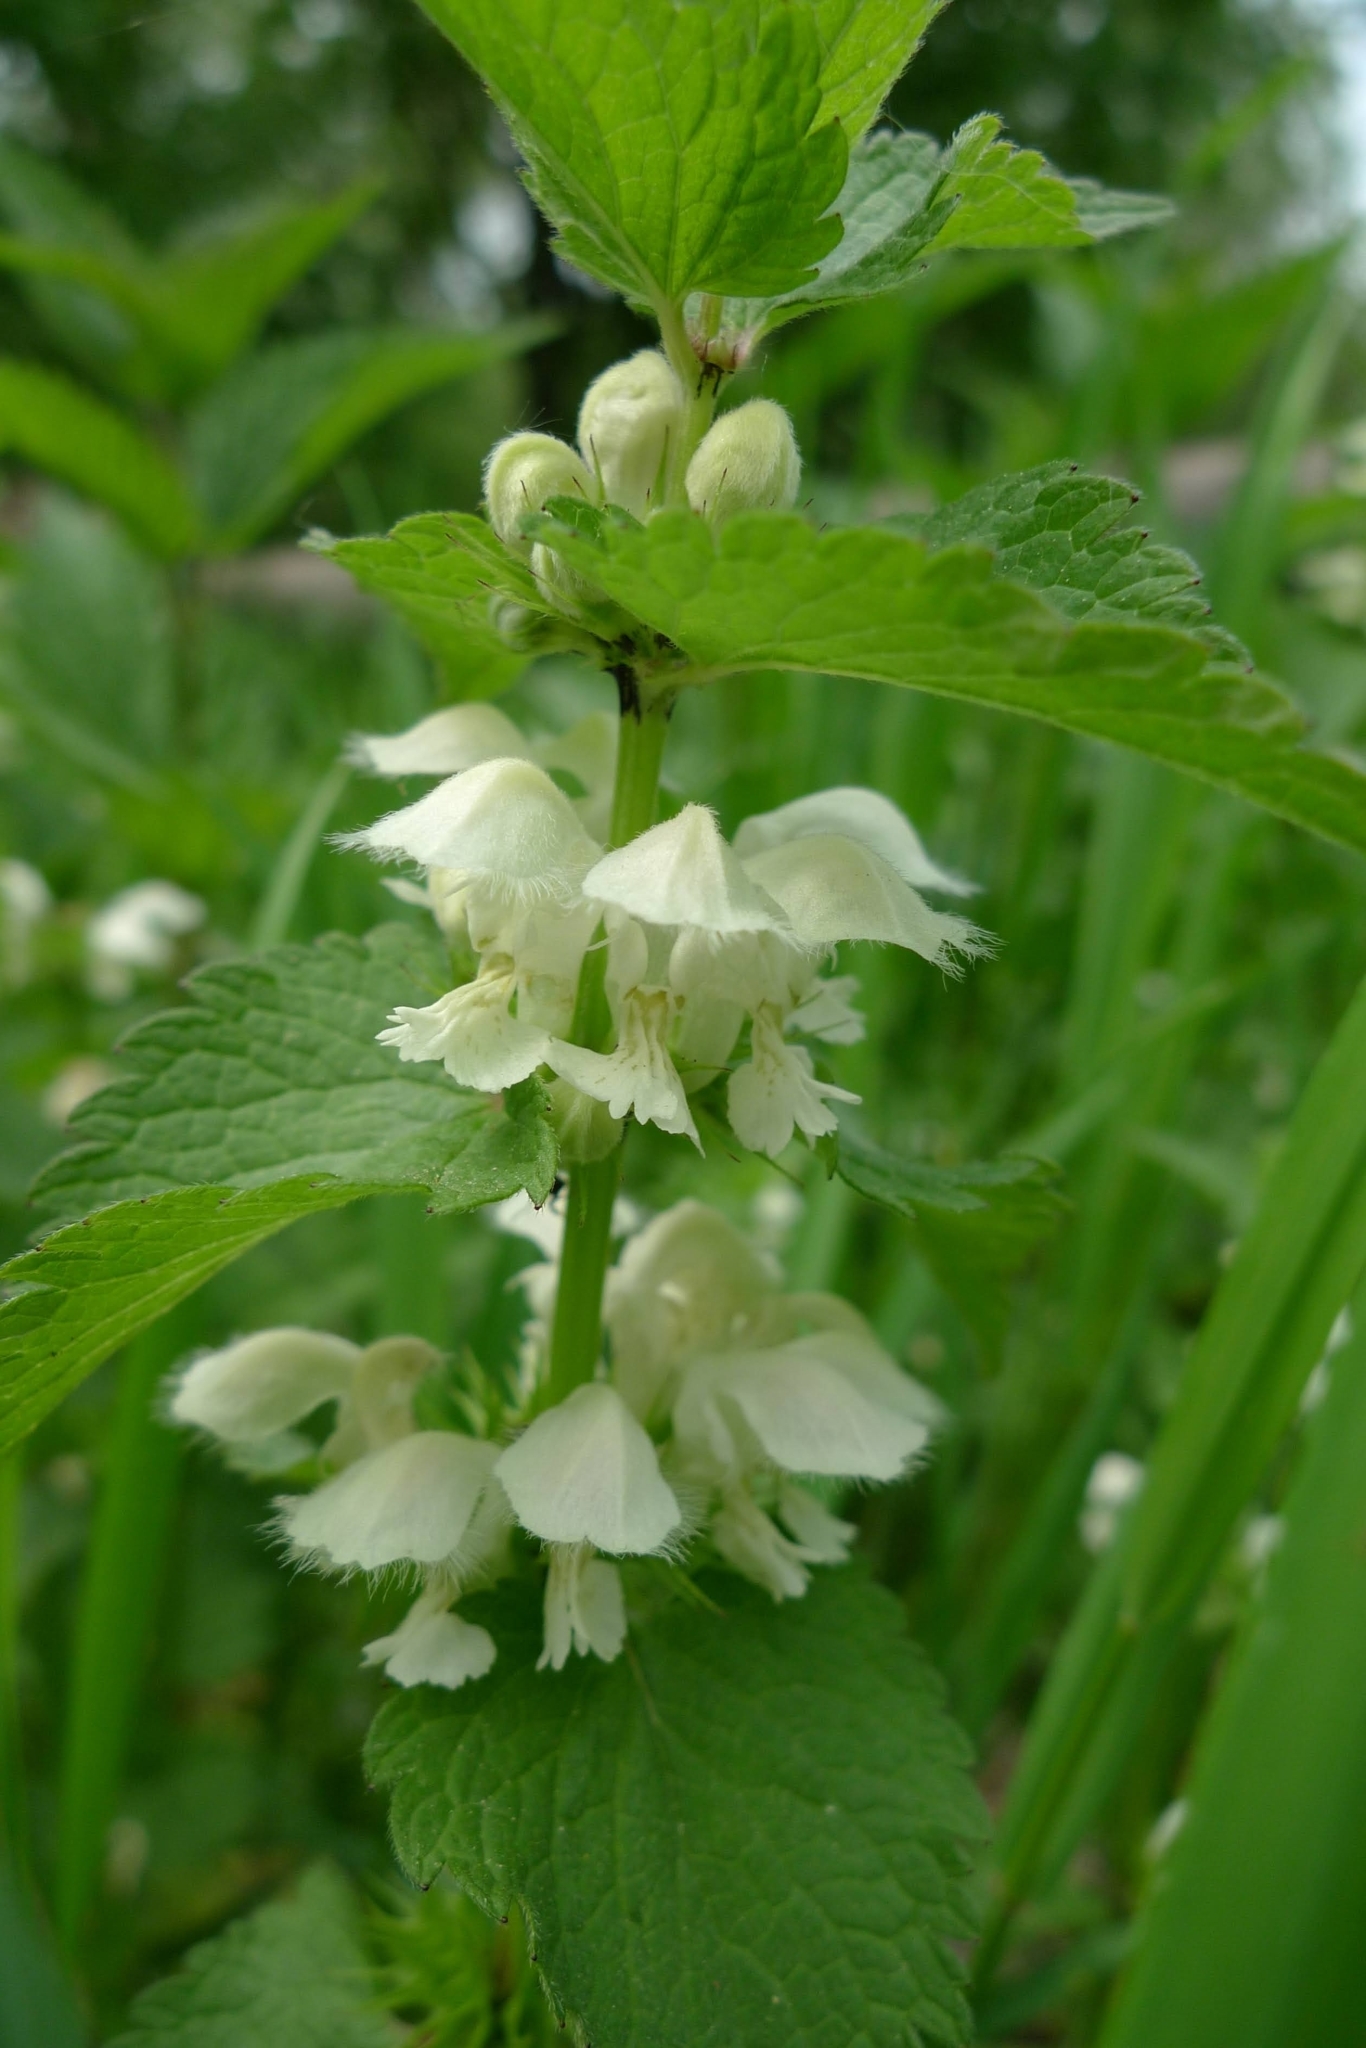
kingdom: Plantae
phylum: Tracheophyta
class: Magnoliopsida
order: Lamiales
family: Lamiaceae
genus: Lamium
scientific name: Lamium album
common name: White dead-nettle
